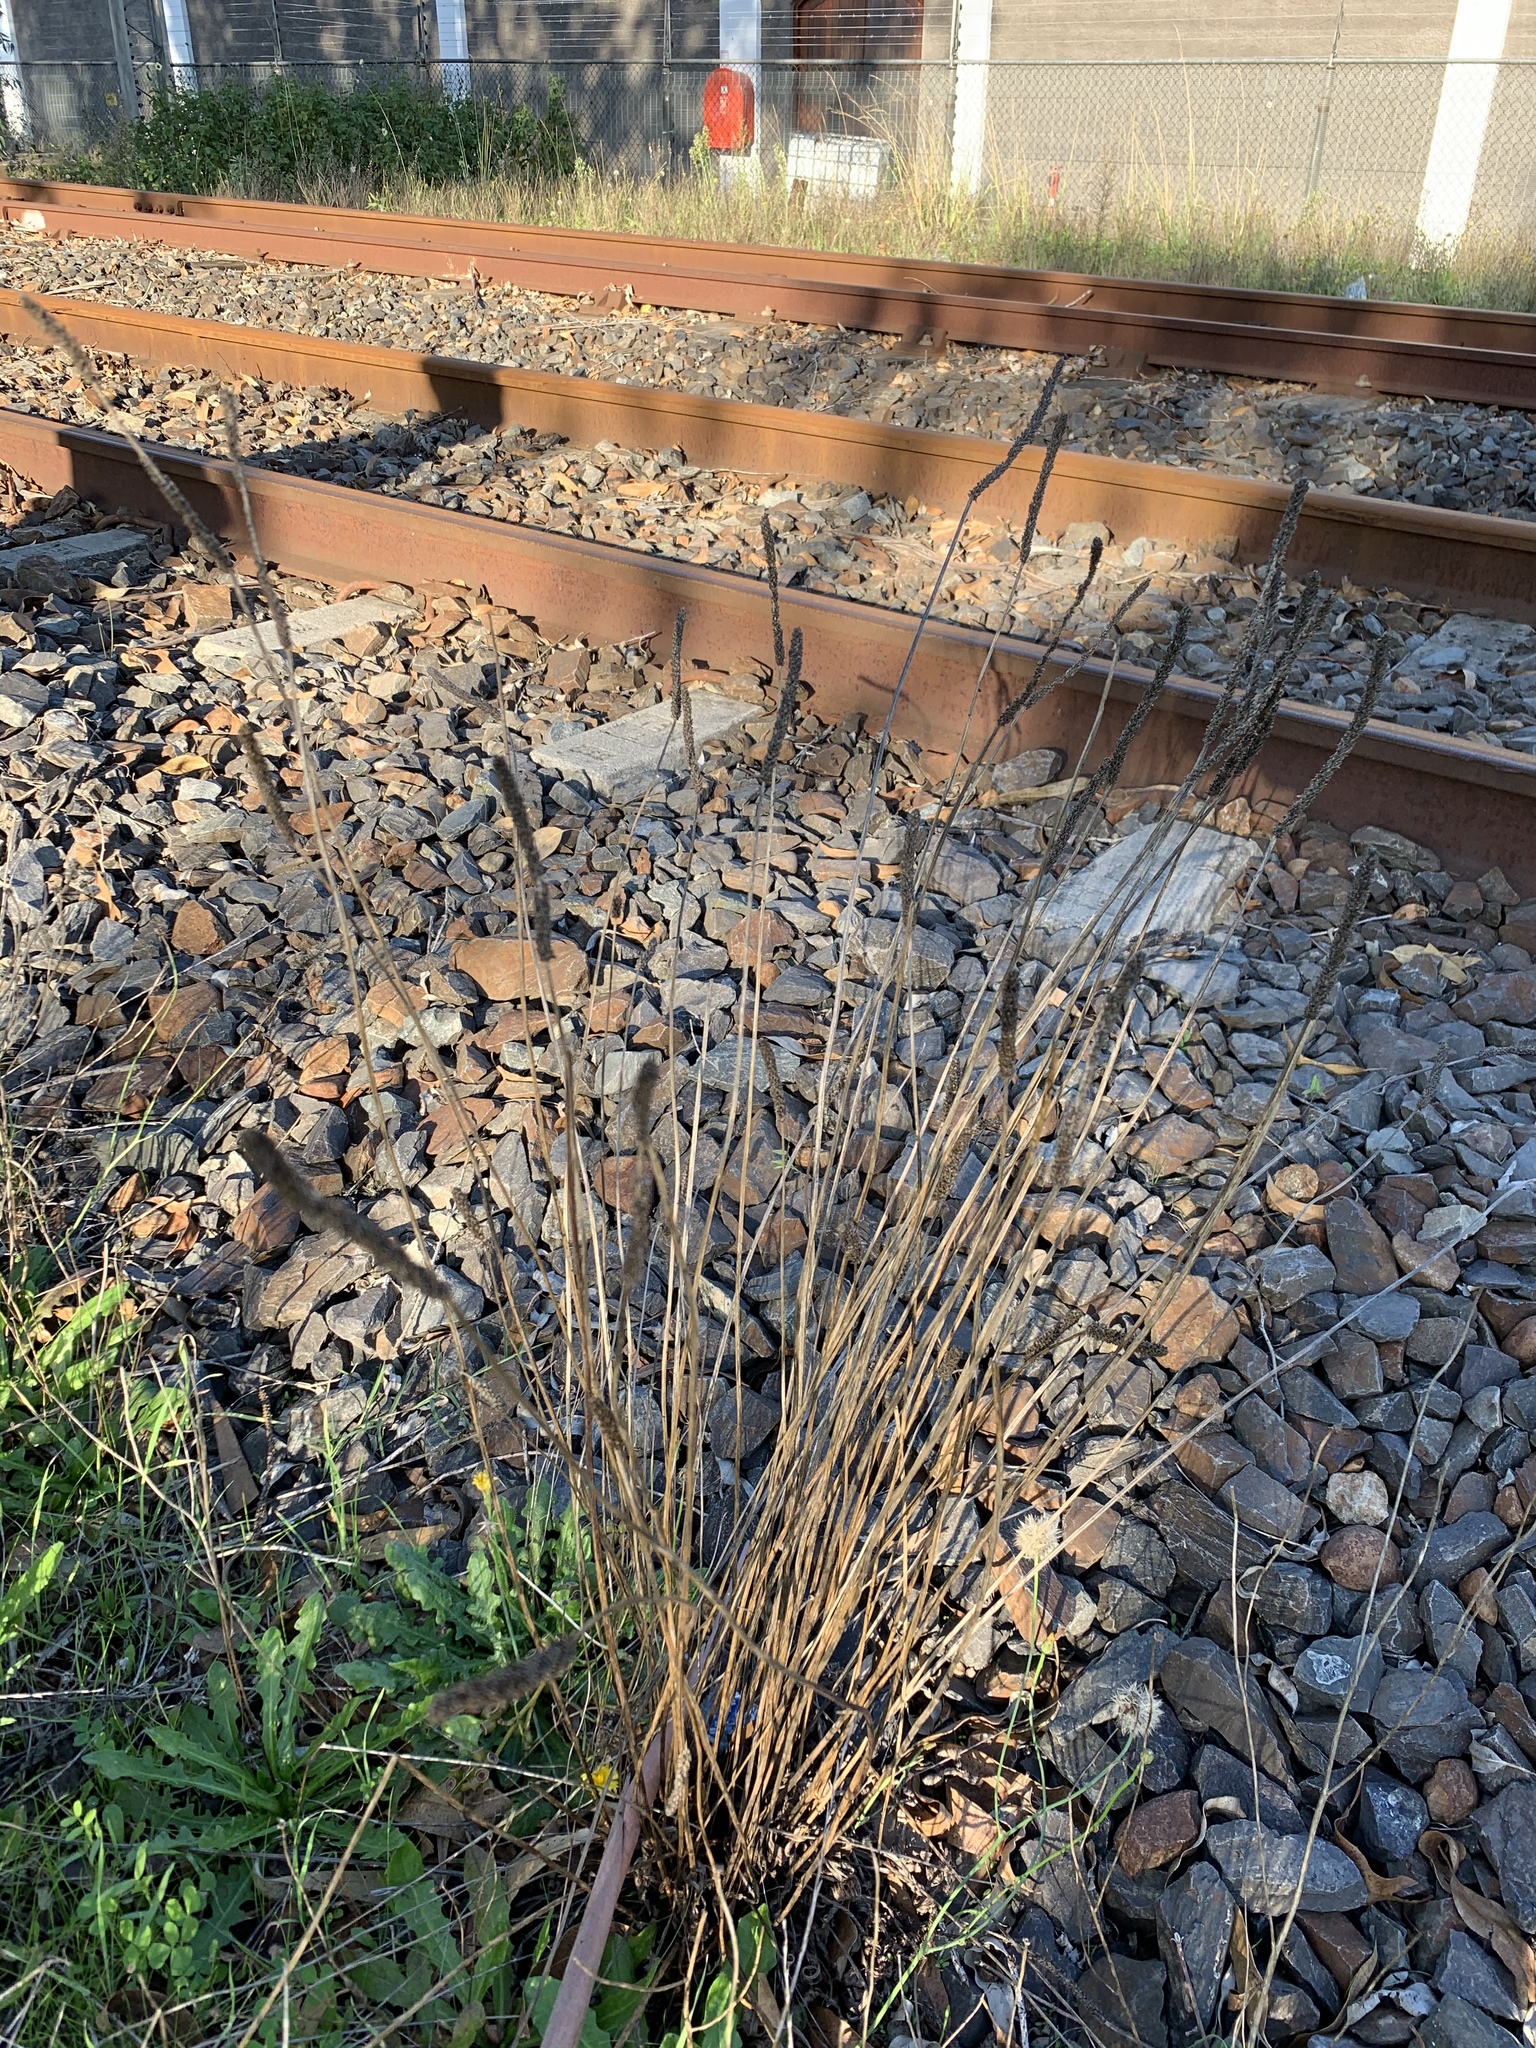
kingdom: Plantae
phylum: Tracheophyta
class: Magnoliopsida
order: Lamiales
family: Plantaginaceae
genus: Plantago
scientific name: Plantago lanceolata
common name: Ribwort plantain
